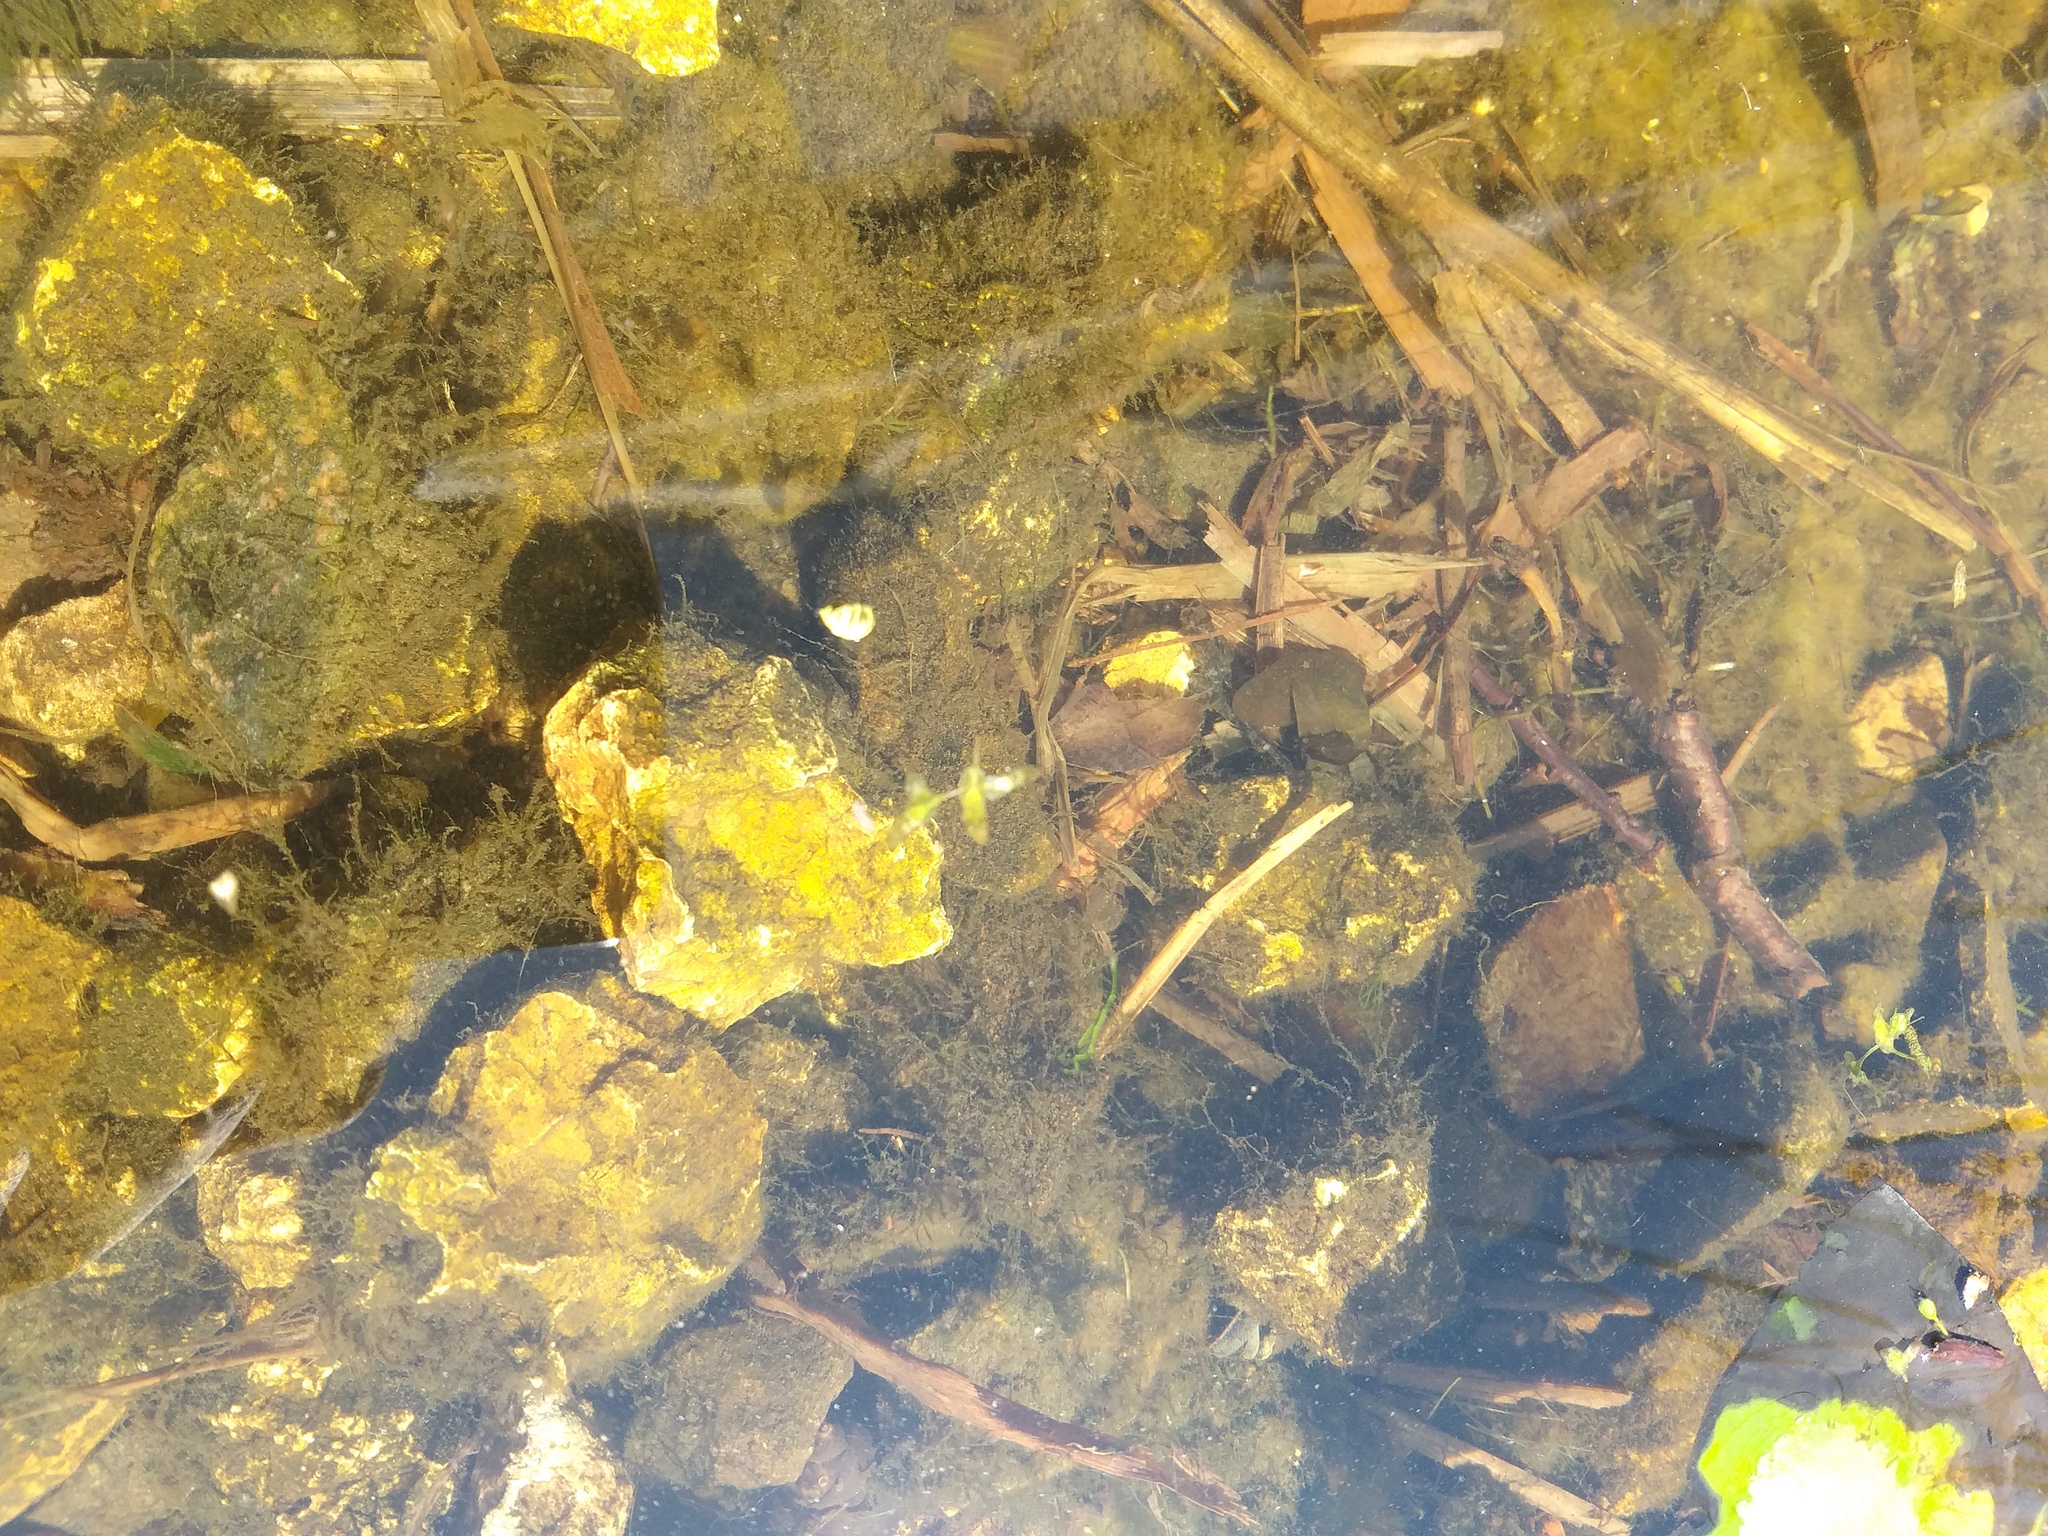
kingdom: Plantae
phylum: Tracheophyta
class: Liliopsida
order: Alismatales
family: Araceae
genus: Lemna
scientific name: Lemna trisulca
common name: Ivy-leaved duckweed
